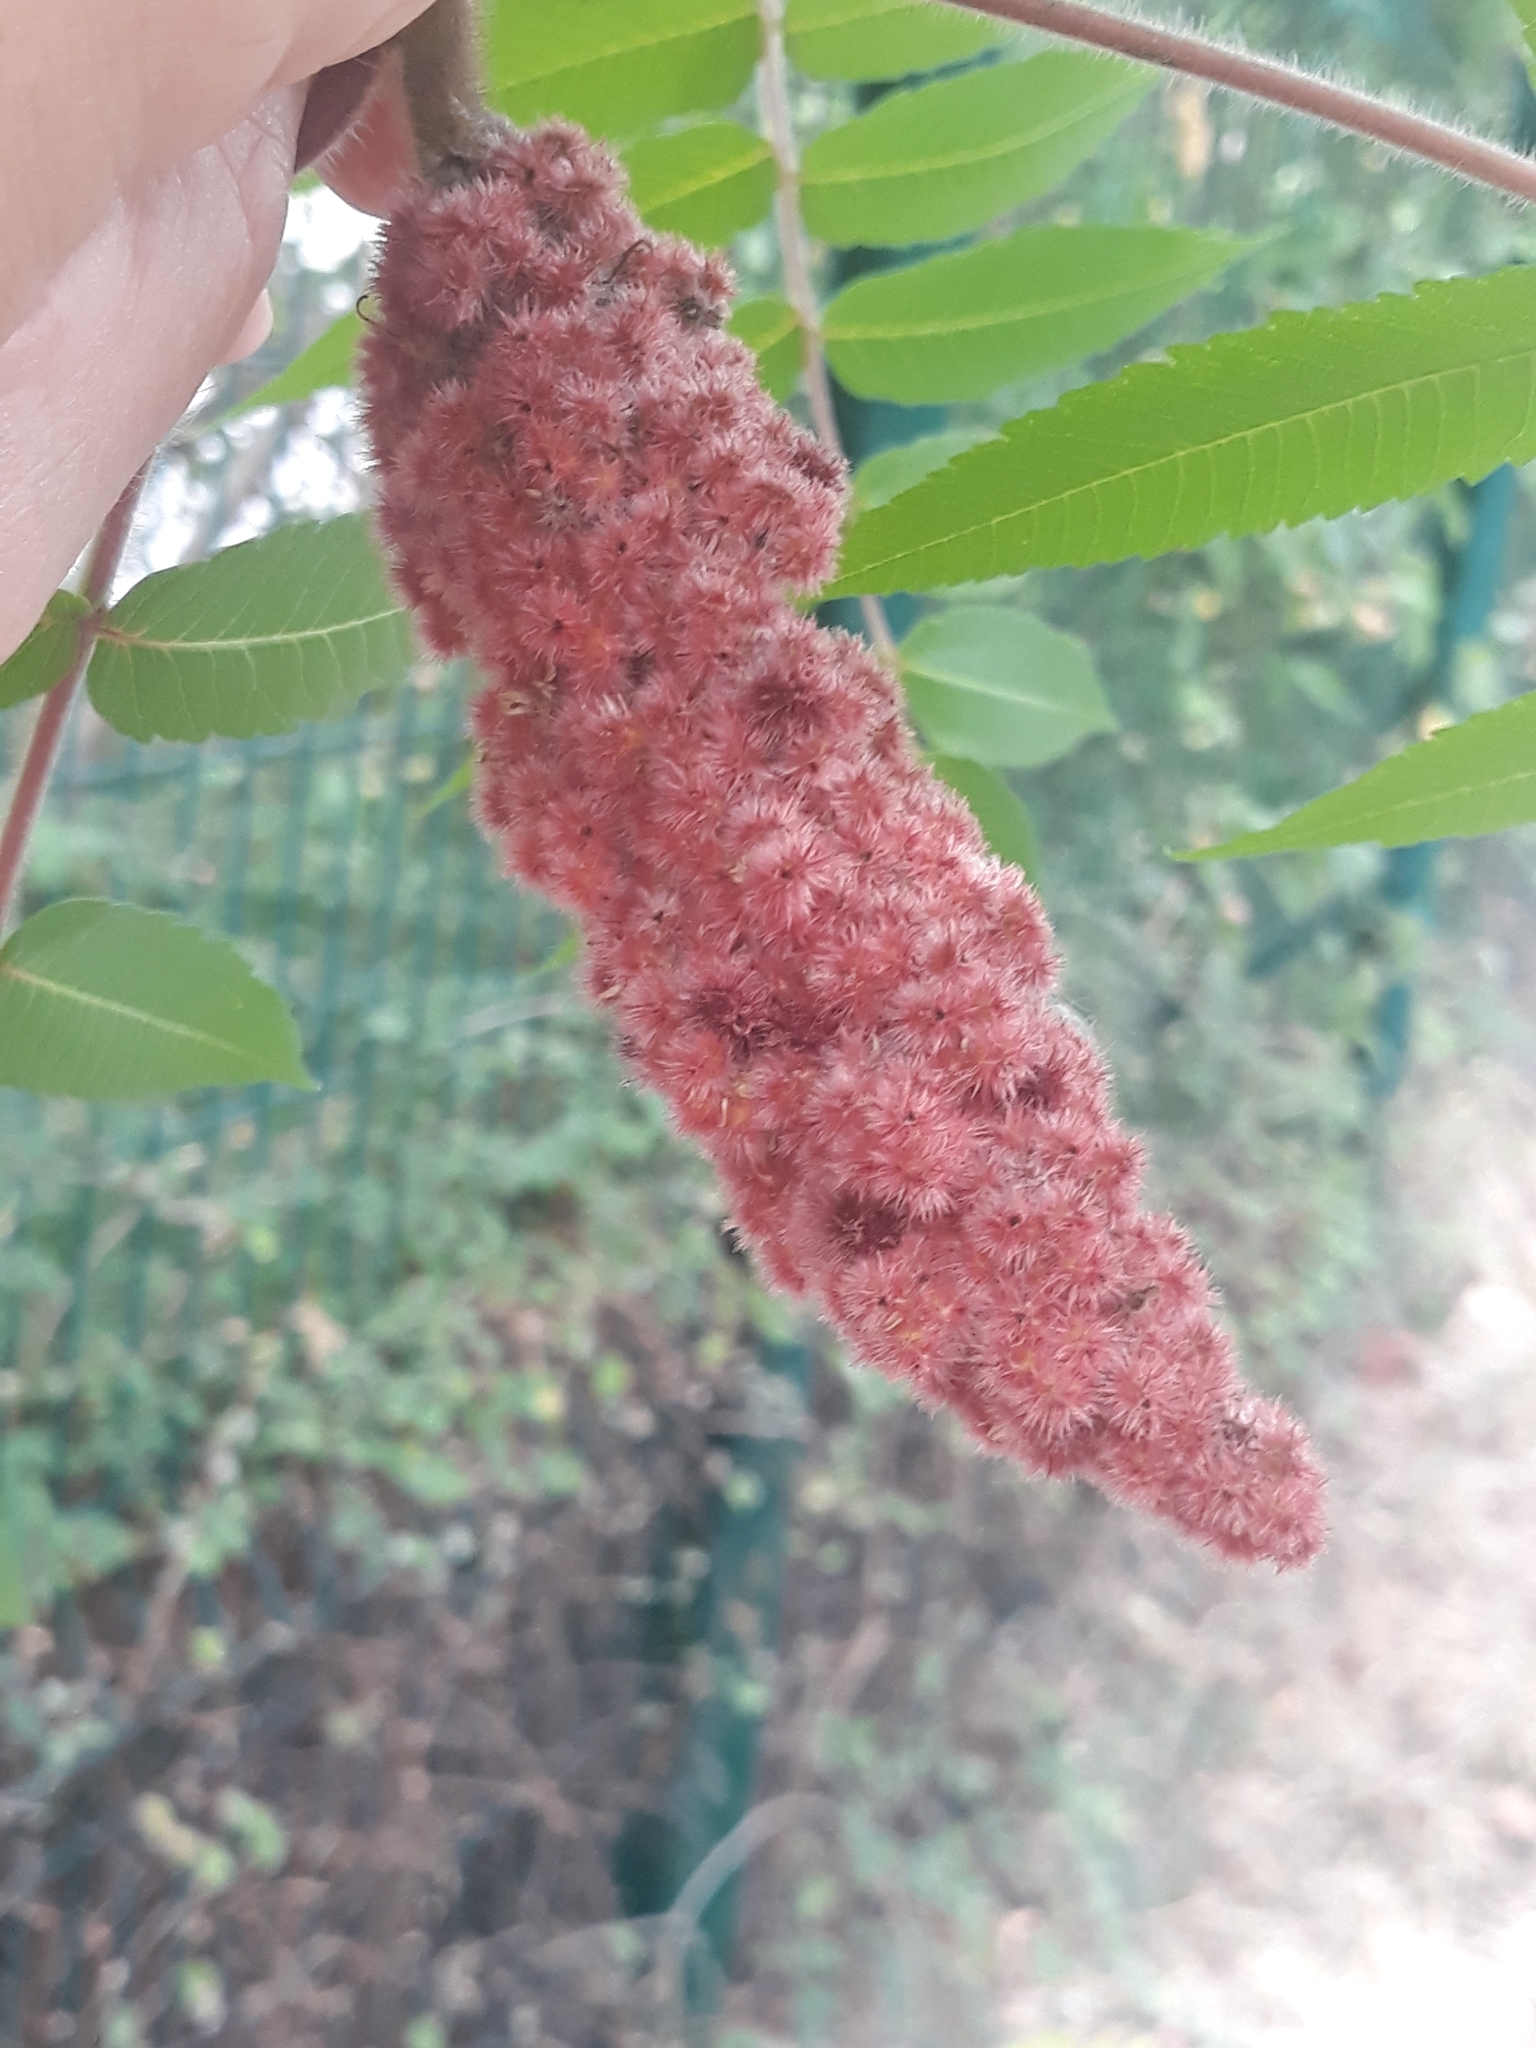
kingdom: Plantae
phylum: Tracheophyta
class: Magnoliopsida
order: Sapindales
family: Anacardiaceae
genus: Rhus
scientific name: Rhus typhina
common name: Staghorn sumac
